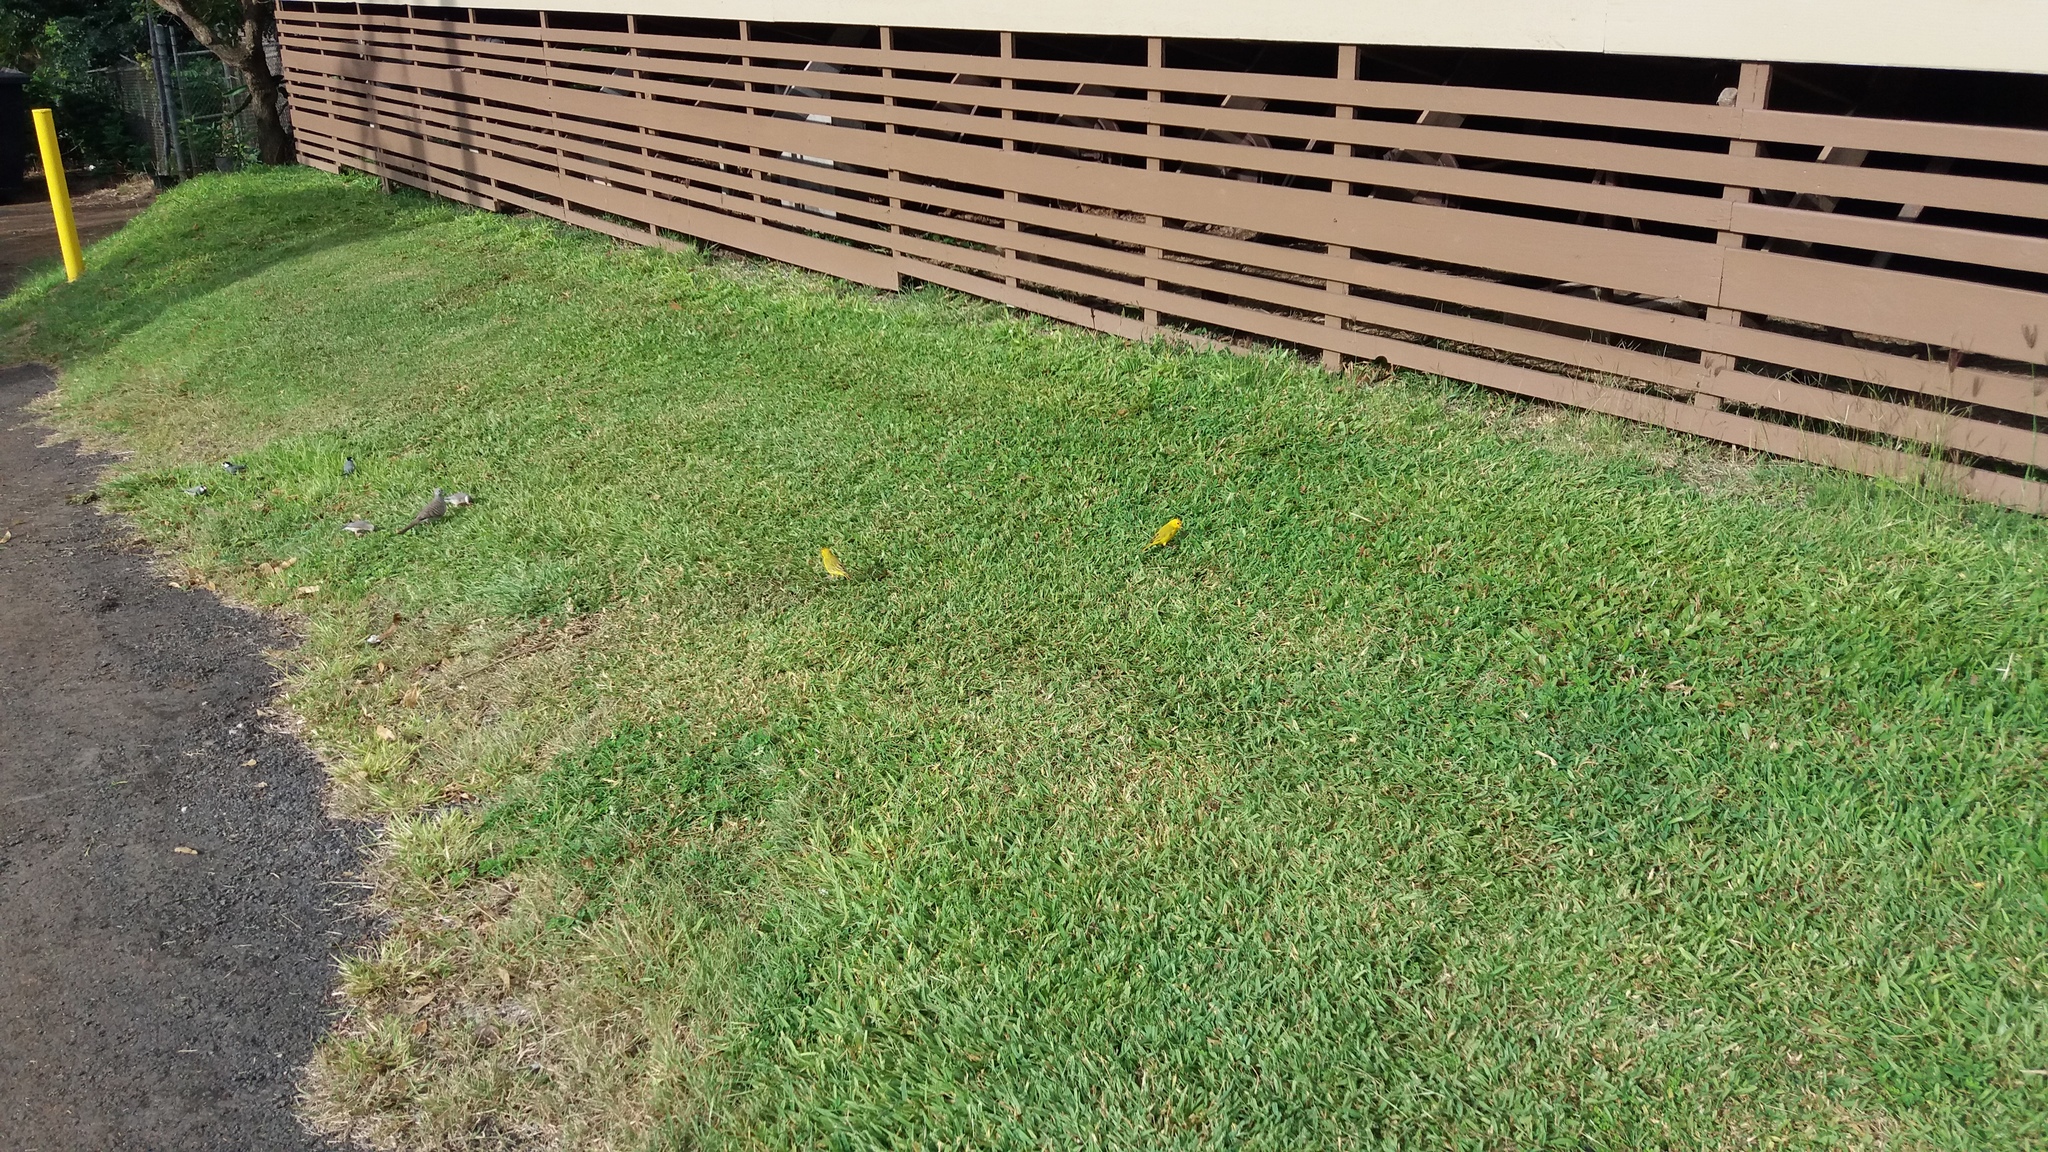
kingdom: Animalia
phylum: Chordata
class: Aves
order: Passeriformes
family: Thraupidae
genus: Sicalis
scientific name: Sicalis flaveola
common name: Saffron finch
